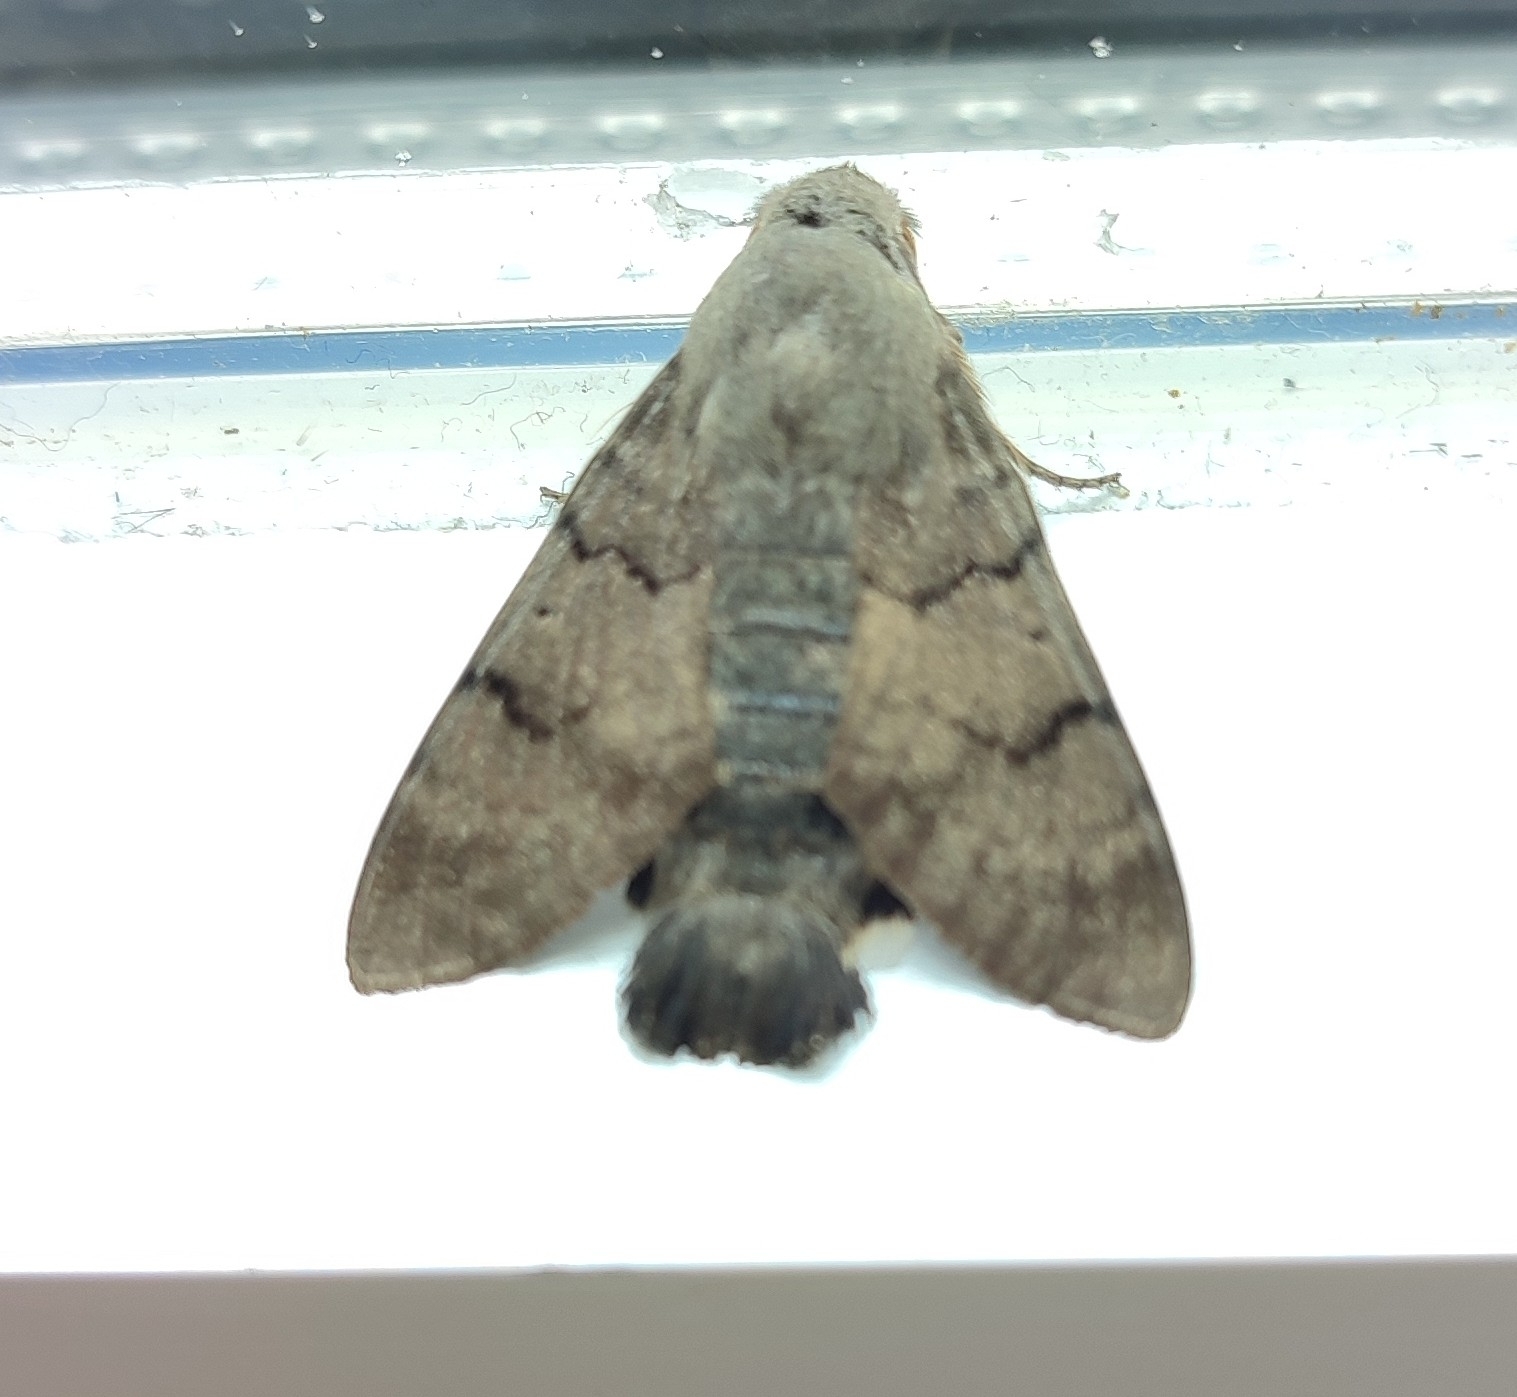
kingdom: Animalia
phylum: Arthropoda
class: Insecta
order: Lepidoptera
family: Sphingidae
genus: Macroglossum
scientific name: Macroglossum stellatarum
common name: Humming-bird hawk-moth
